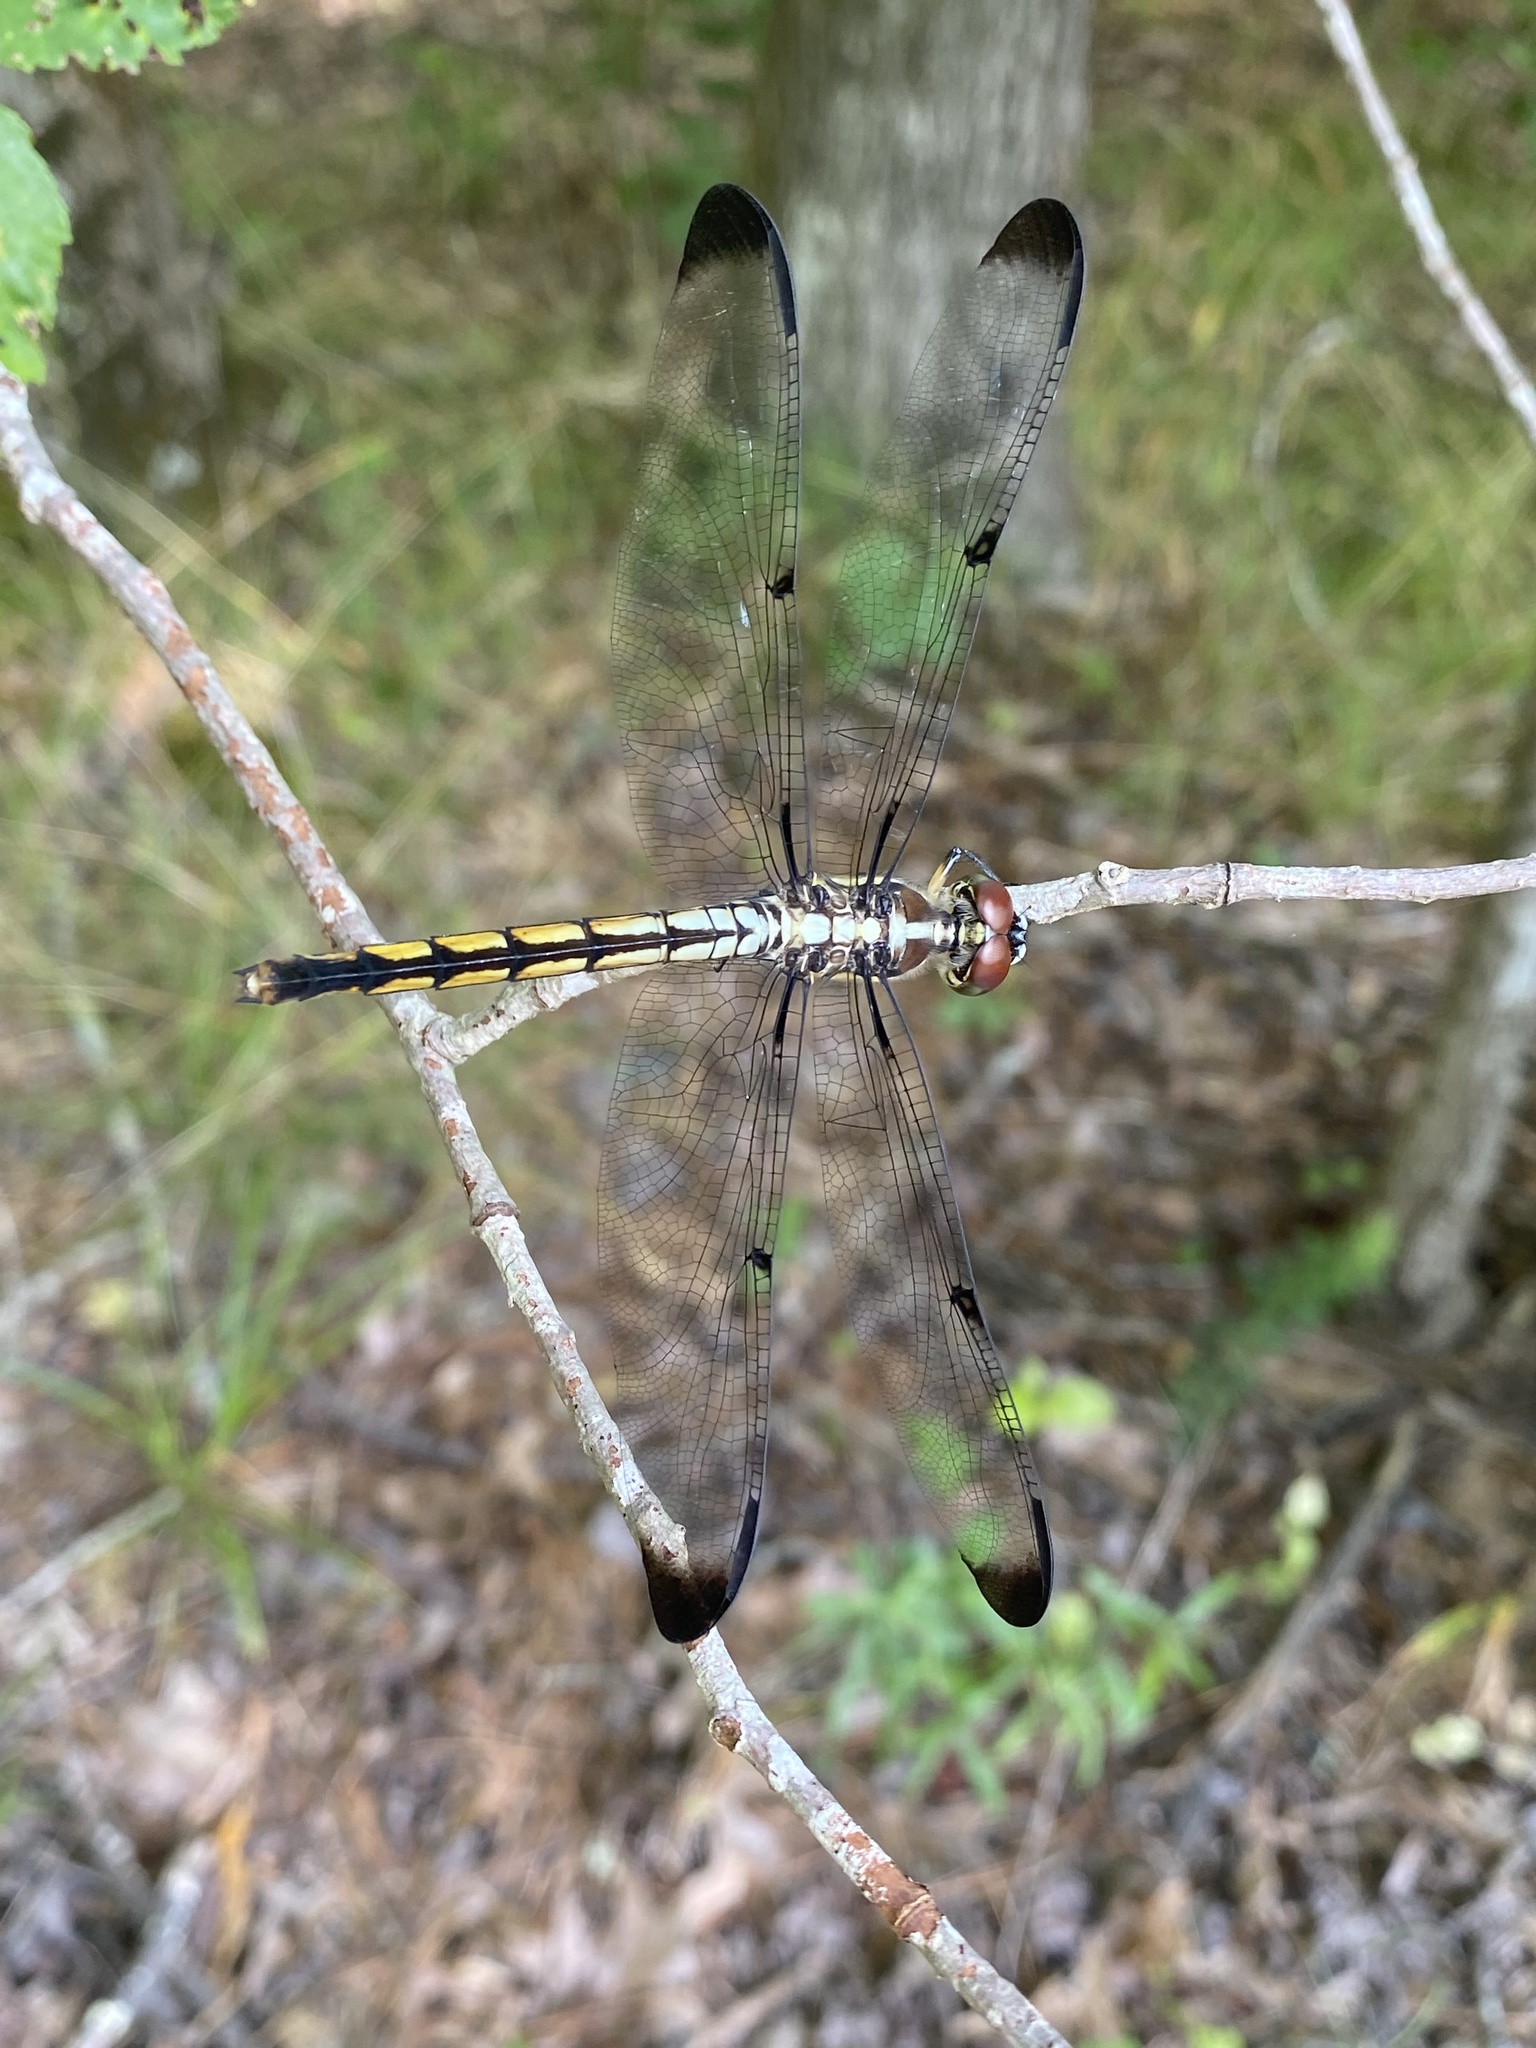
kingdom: Animalia
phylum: Arthropoda
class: Insecta
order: Odonata
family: Libellulidae
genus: Libellula
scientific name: Libellula vibrans
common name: Great blue skimmer
